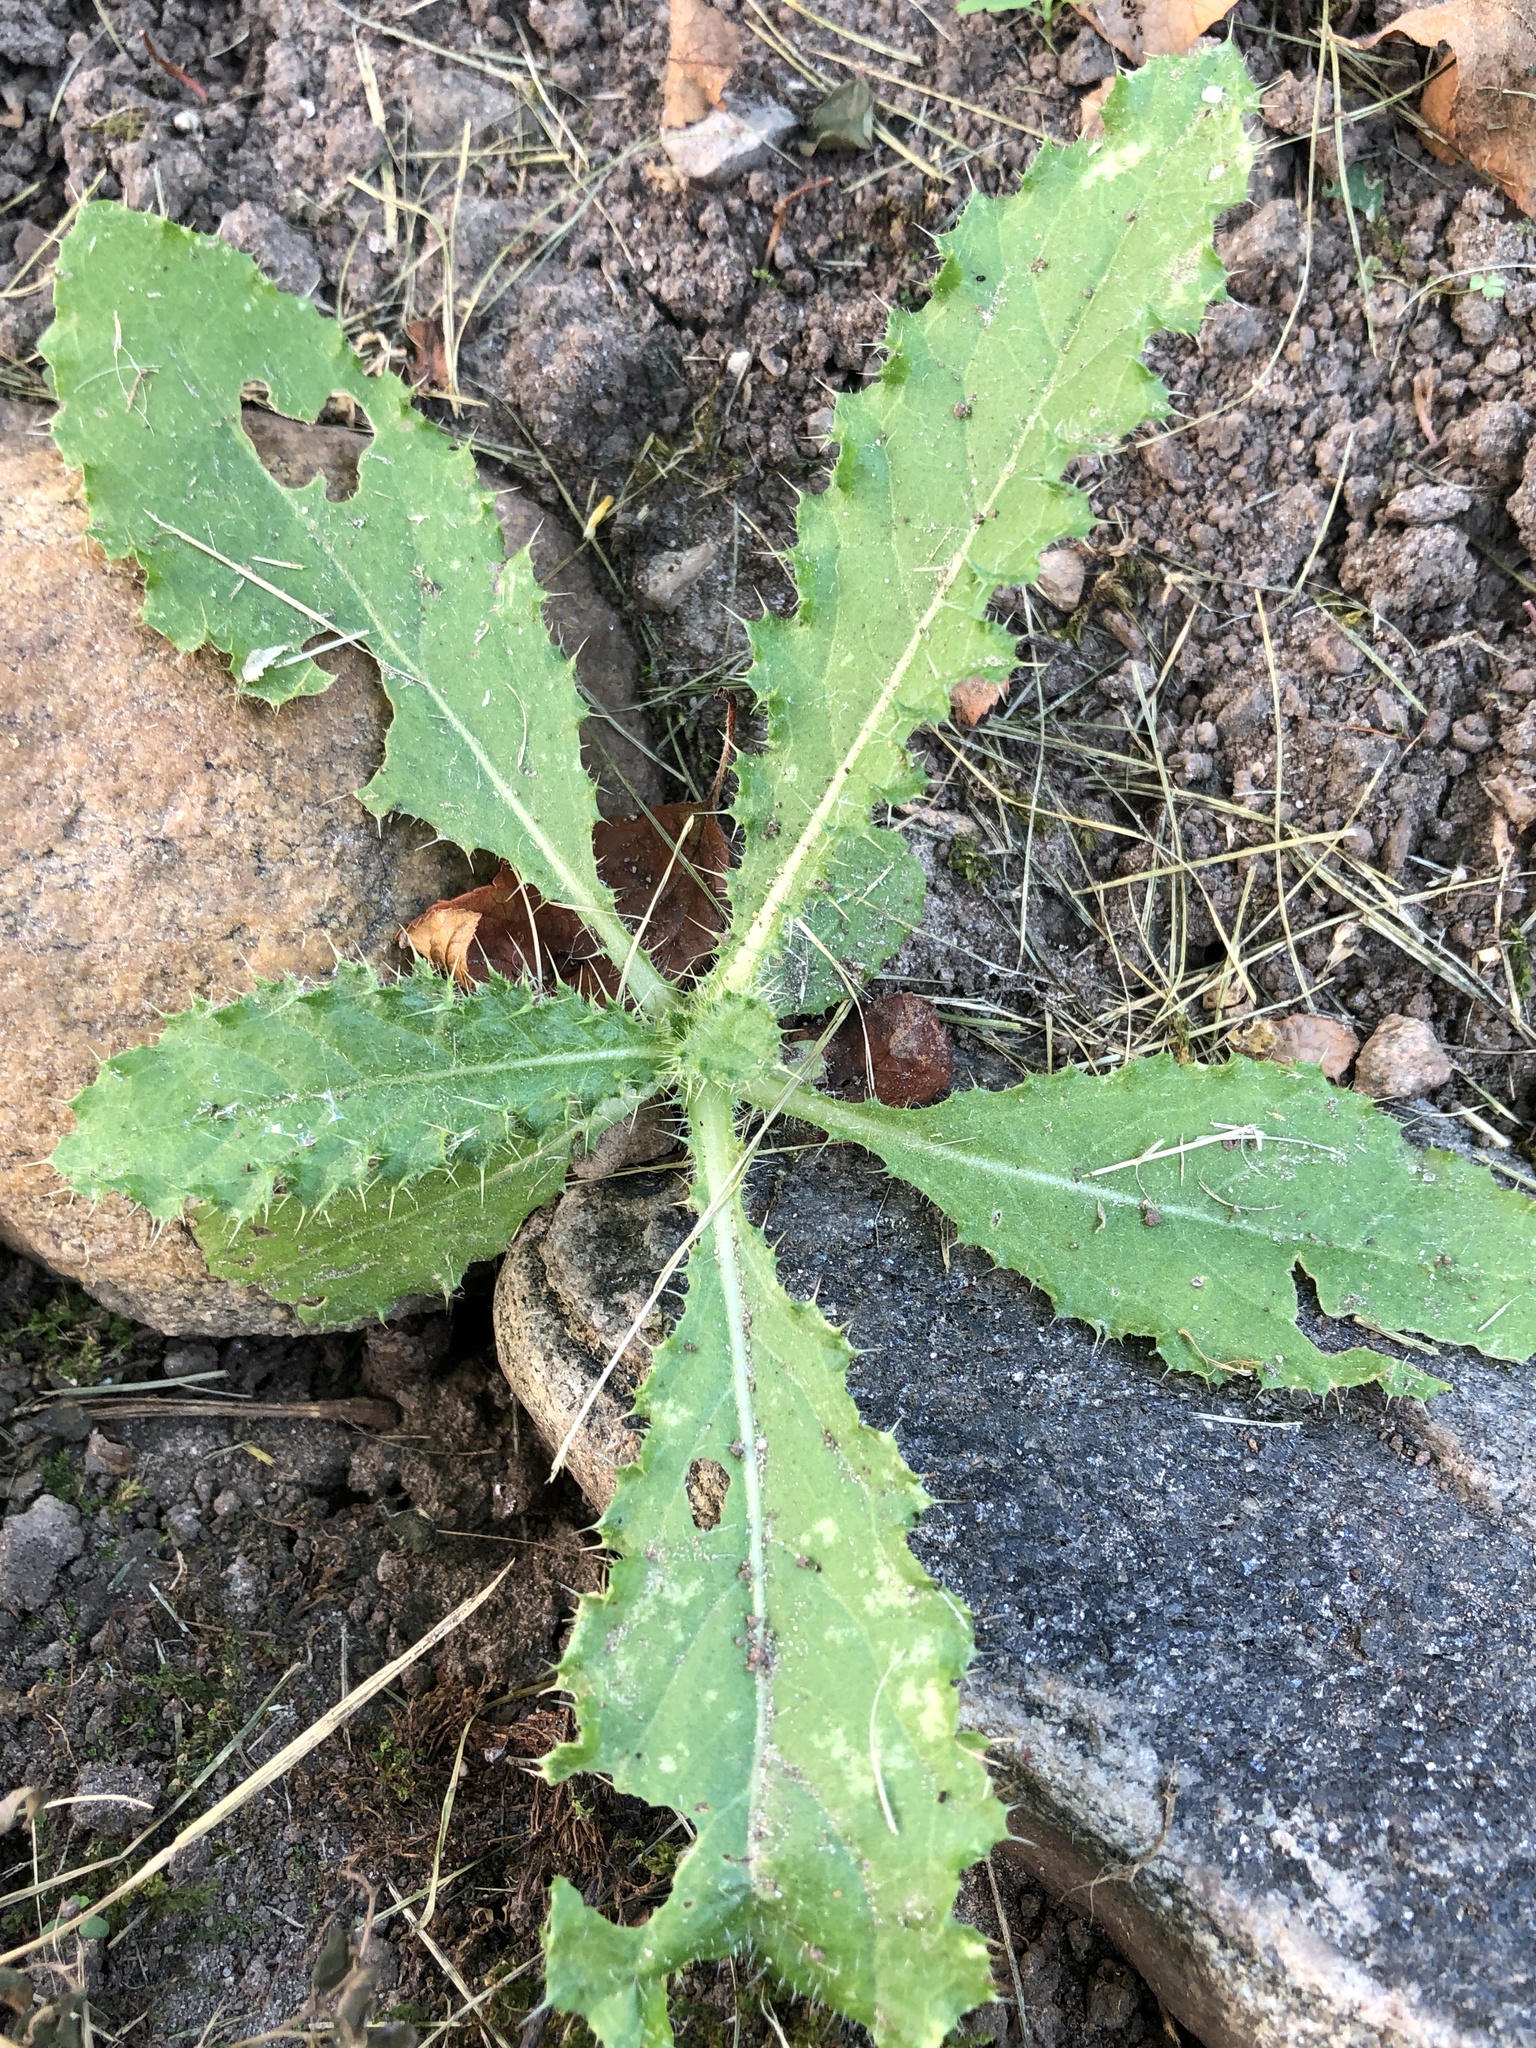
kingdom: Plantae
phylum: Tracheophyta
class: Magnoliopsida
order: Asterales
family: Asteraceae
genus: Cirsium
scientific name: Cirsium arvense
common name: Creeping thistle
